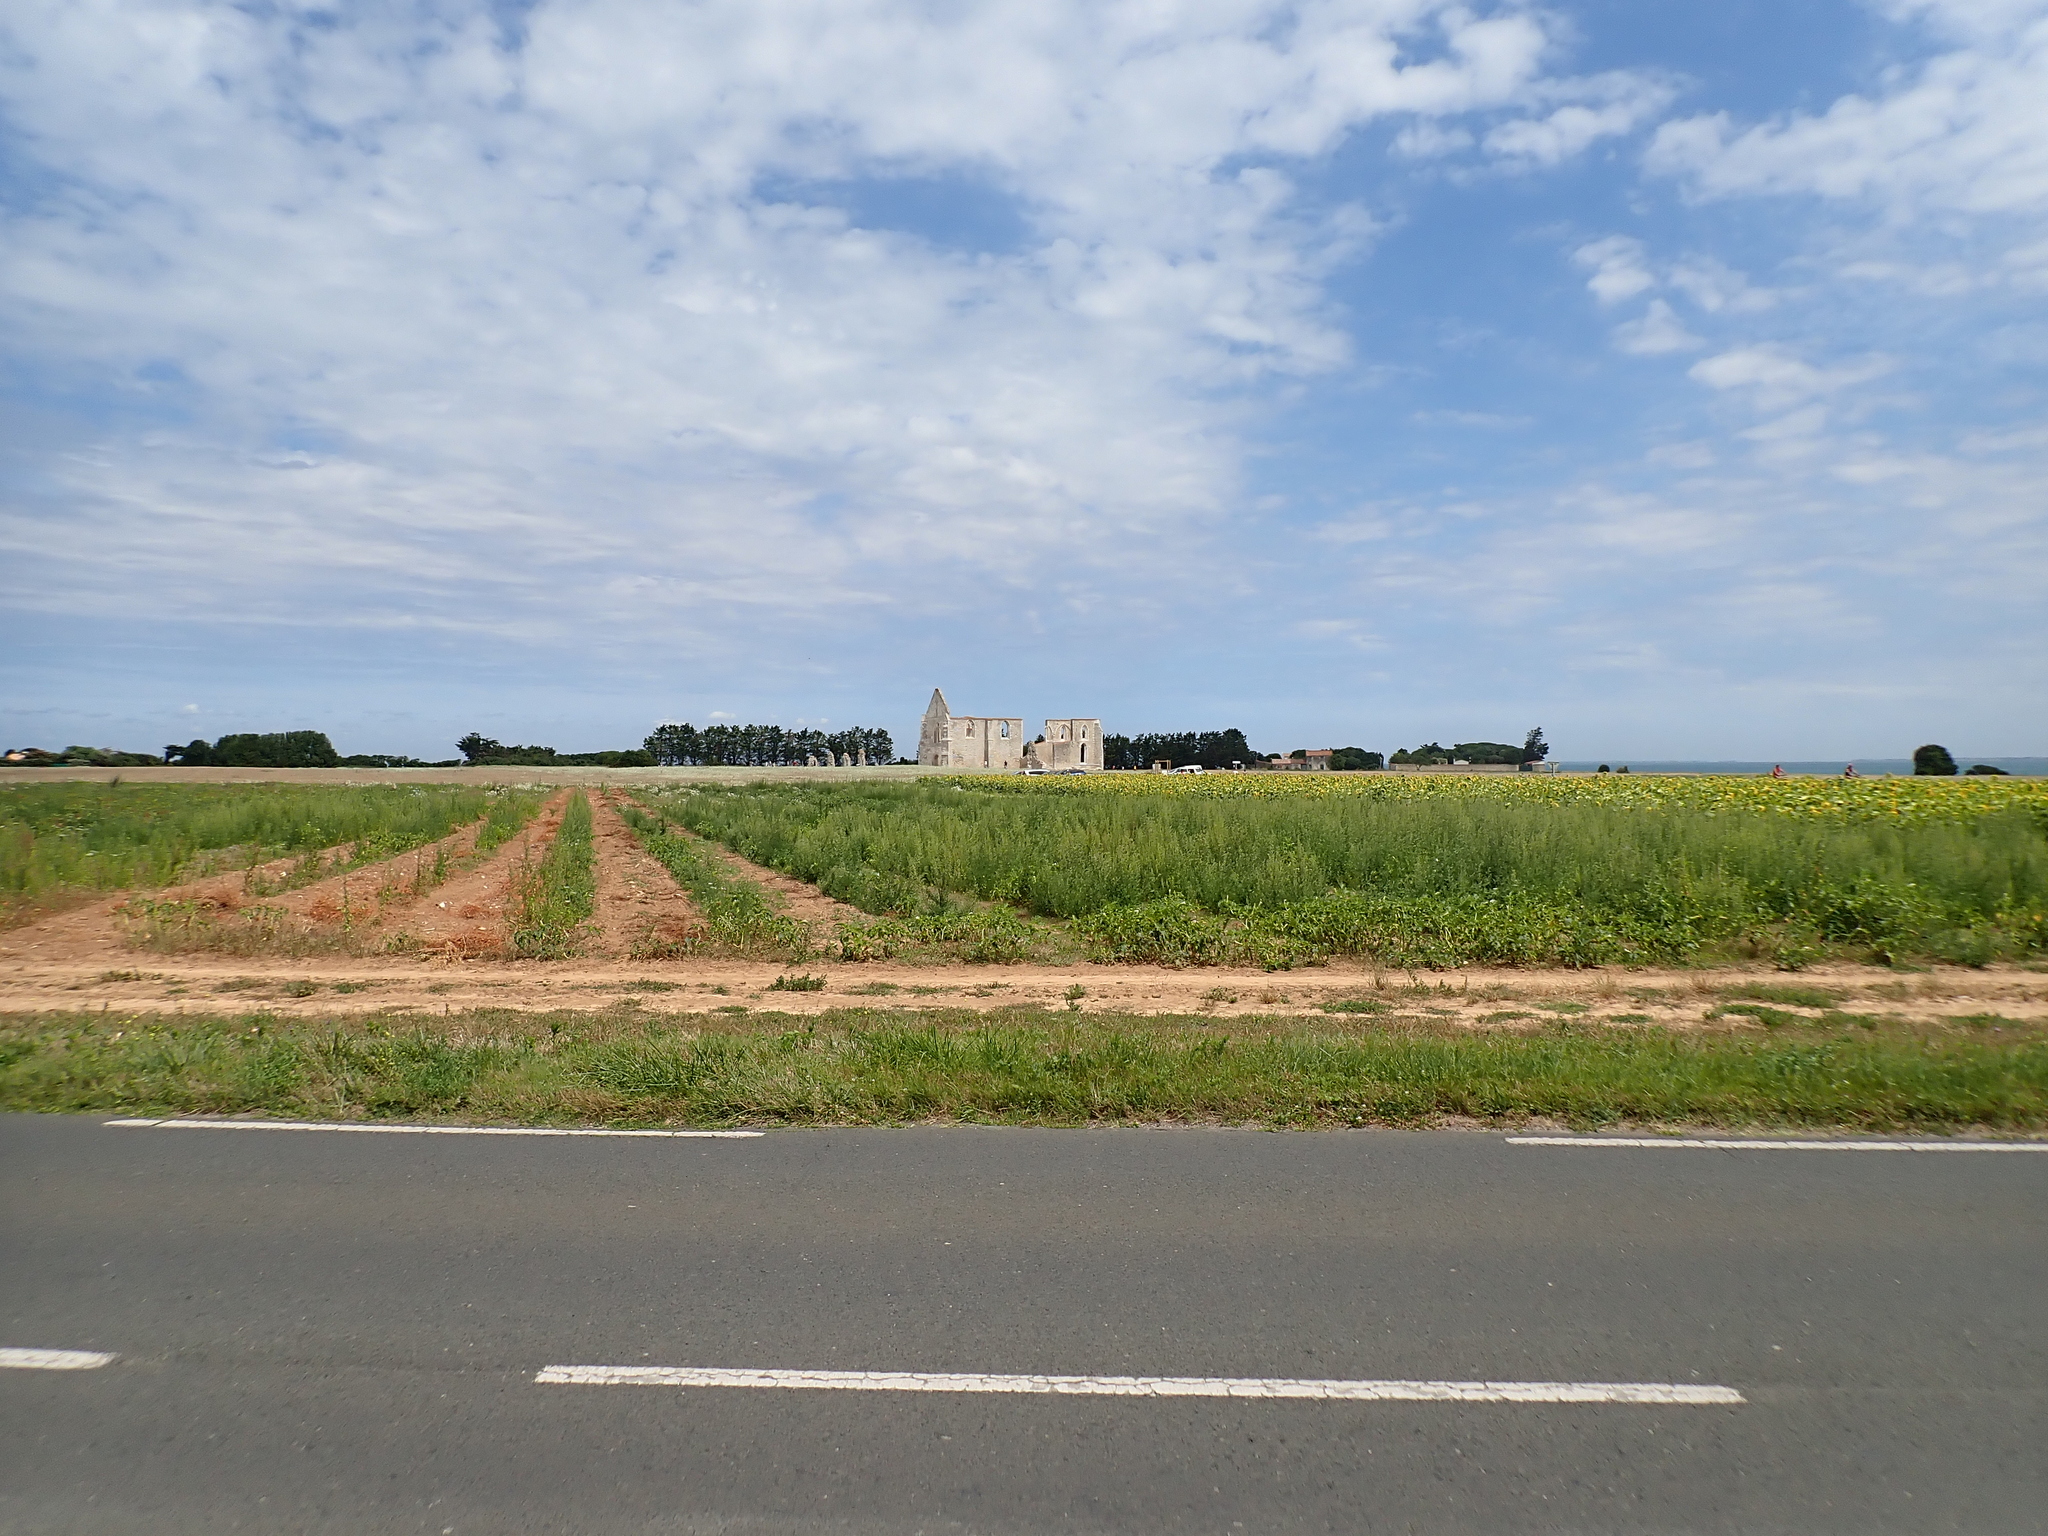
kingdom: Plantae
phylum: Tracheophyta
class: Magnoliopsida
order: Solanales
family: Solanaceae
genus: Datura
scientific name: Datura stramonium
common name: Thorn-apple
